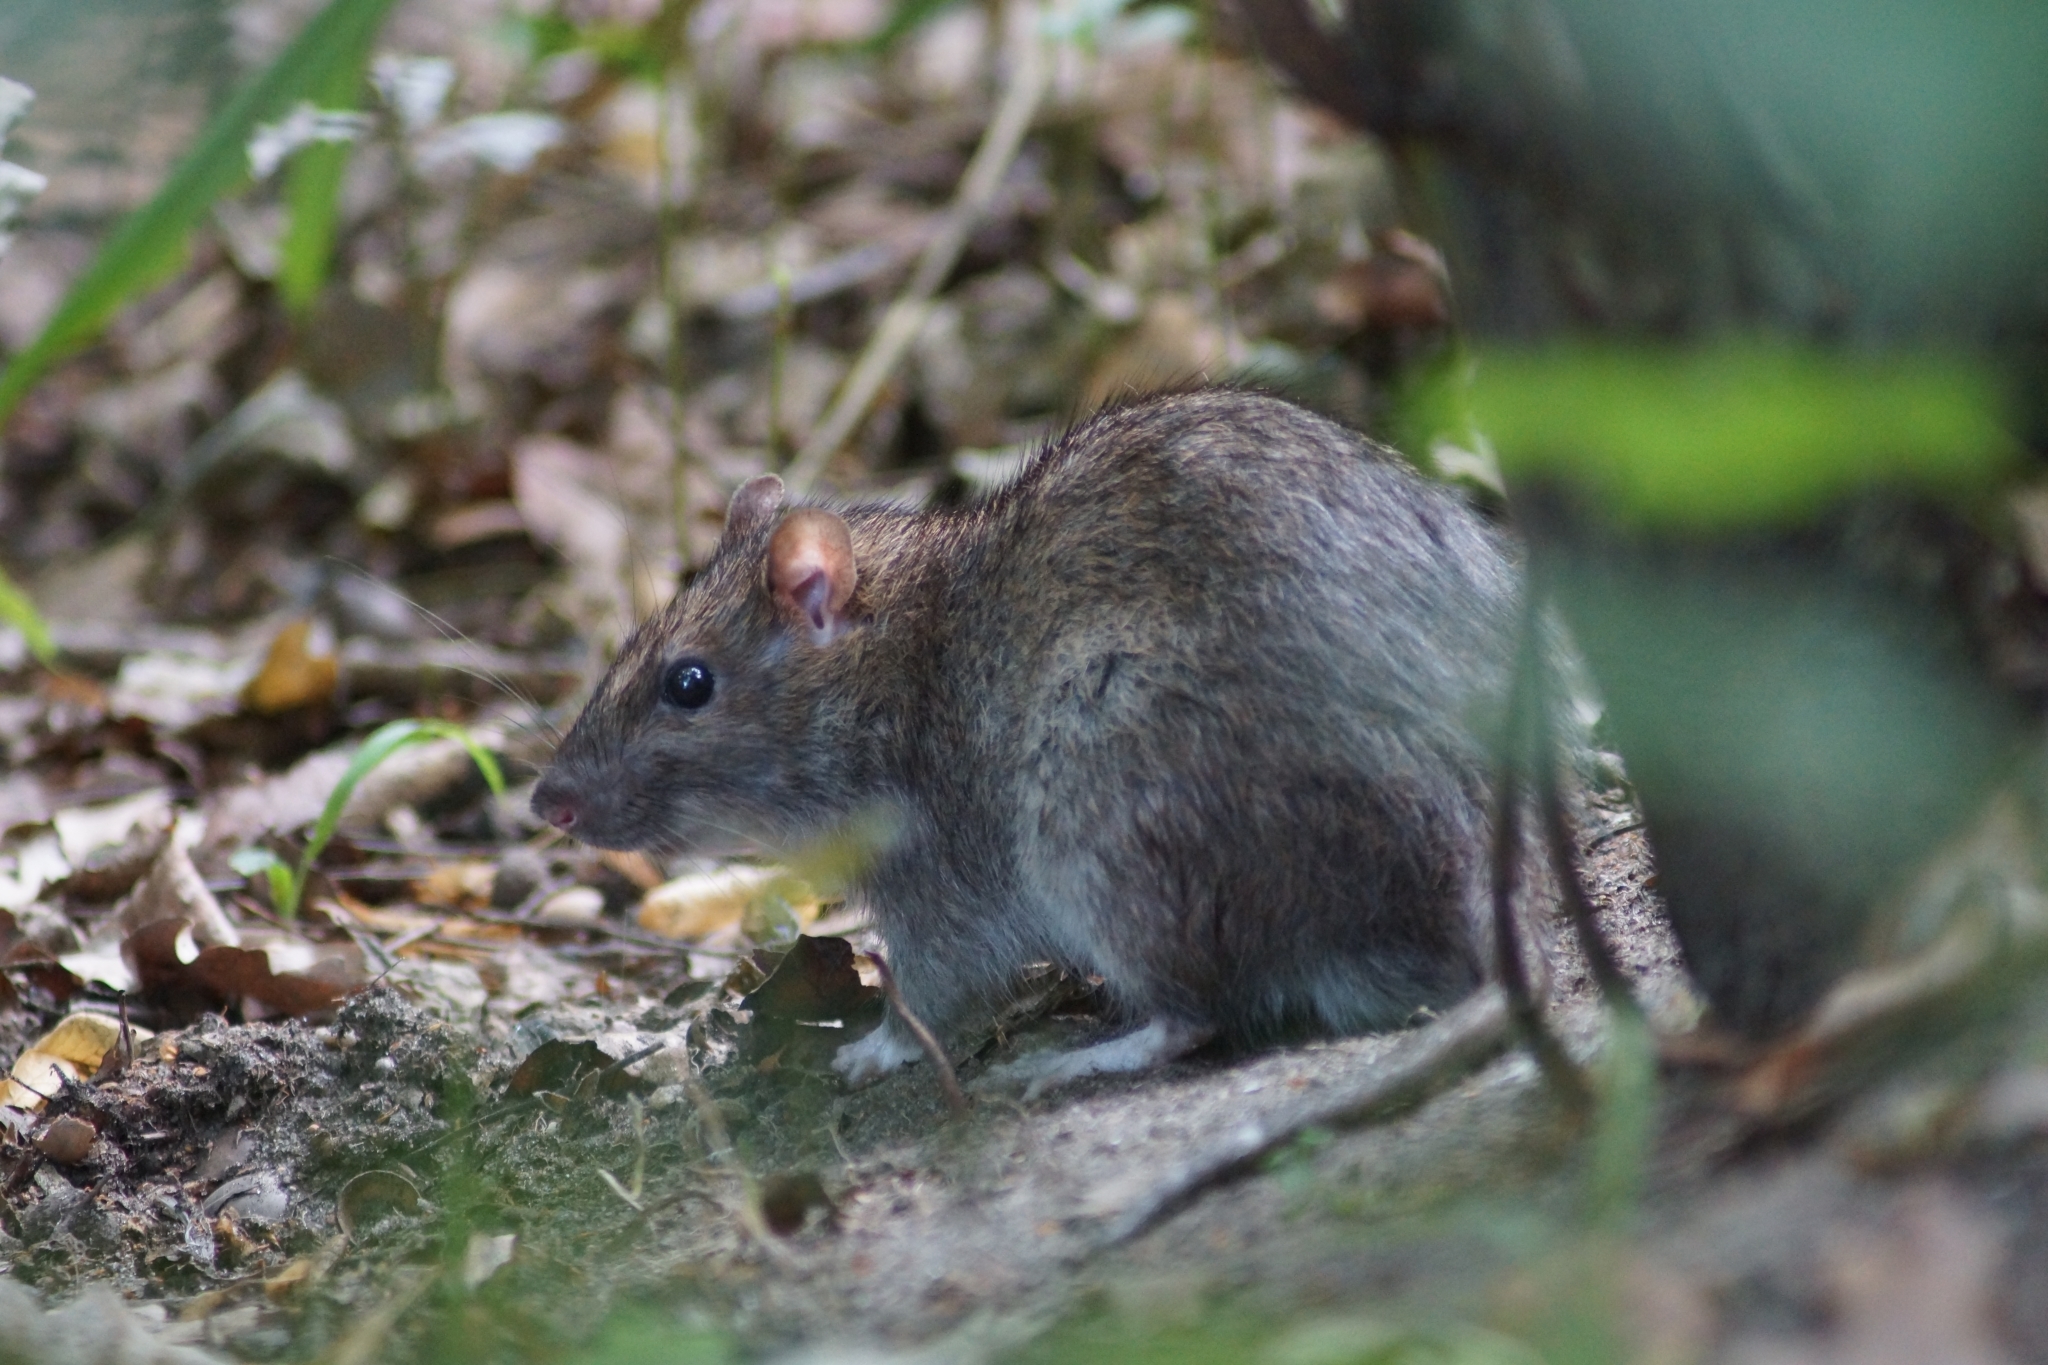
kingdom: Animalia
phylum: Chordata
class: Mammalia
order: Rodentia
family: Muridae
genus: Rattus
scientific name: Rattus norvegicus
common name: Brown rat
